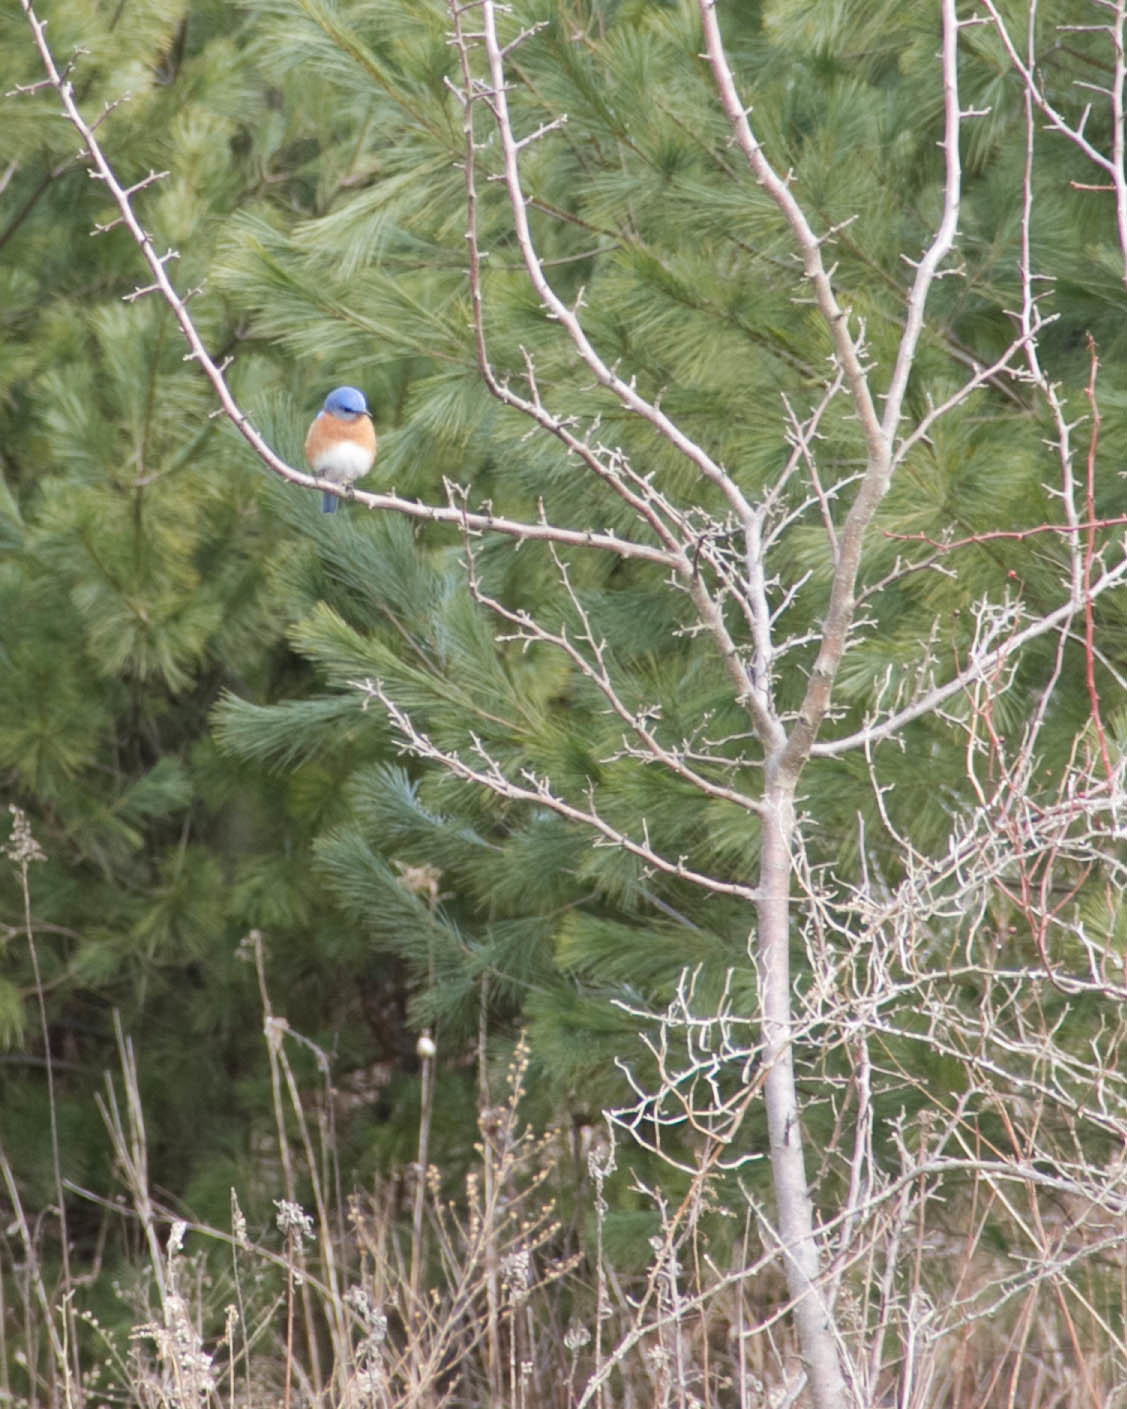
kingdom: Animalia
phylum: Chordata
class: Aves
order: Passeriformes
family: Turdidae
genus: Sialia
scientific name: Sialia sialis
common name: Eastern bluebird
